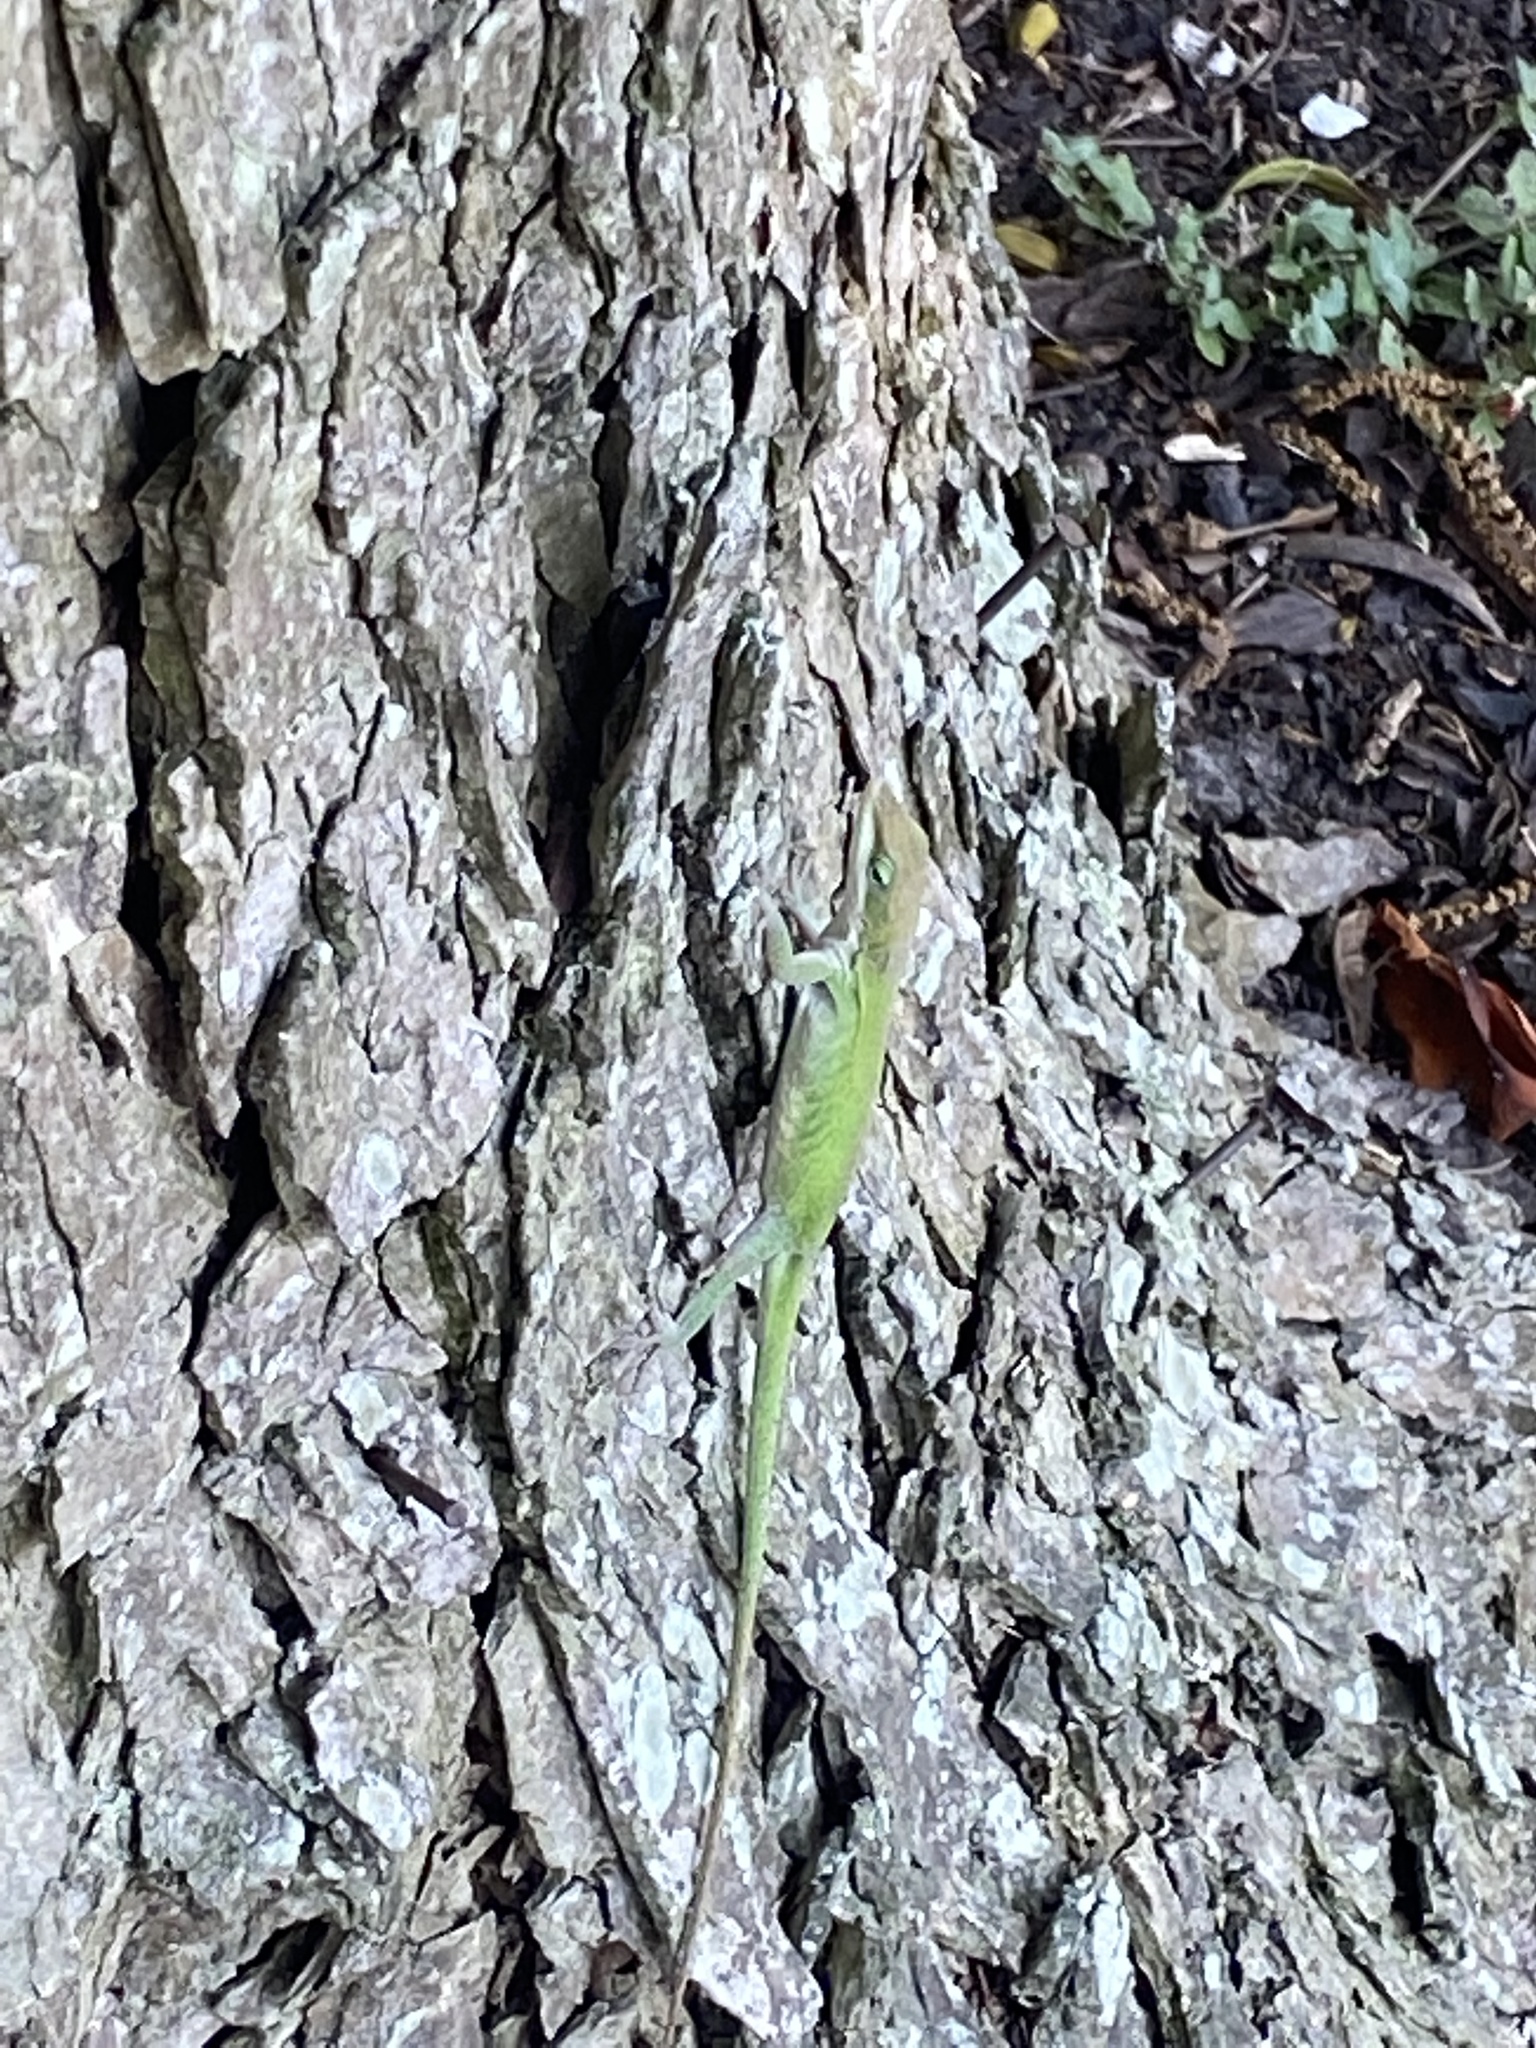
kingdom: Animalia
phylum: Chordata
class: Squamata
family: Dactyloidae
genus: Anolis
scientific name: Anolis carolinensis
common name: Green anole
